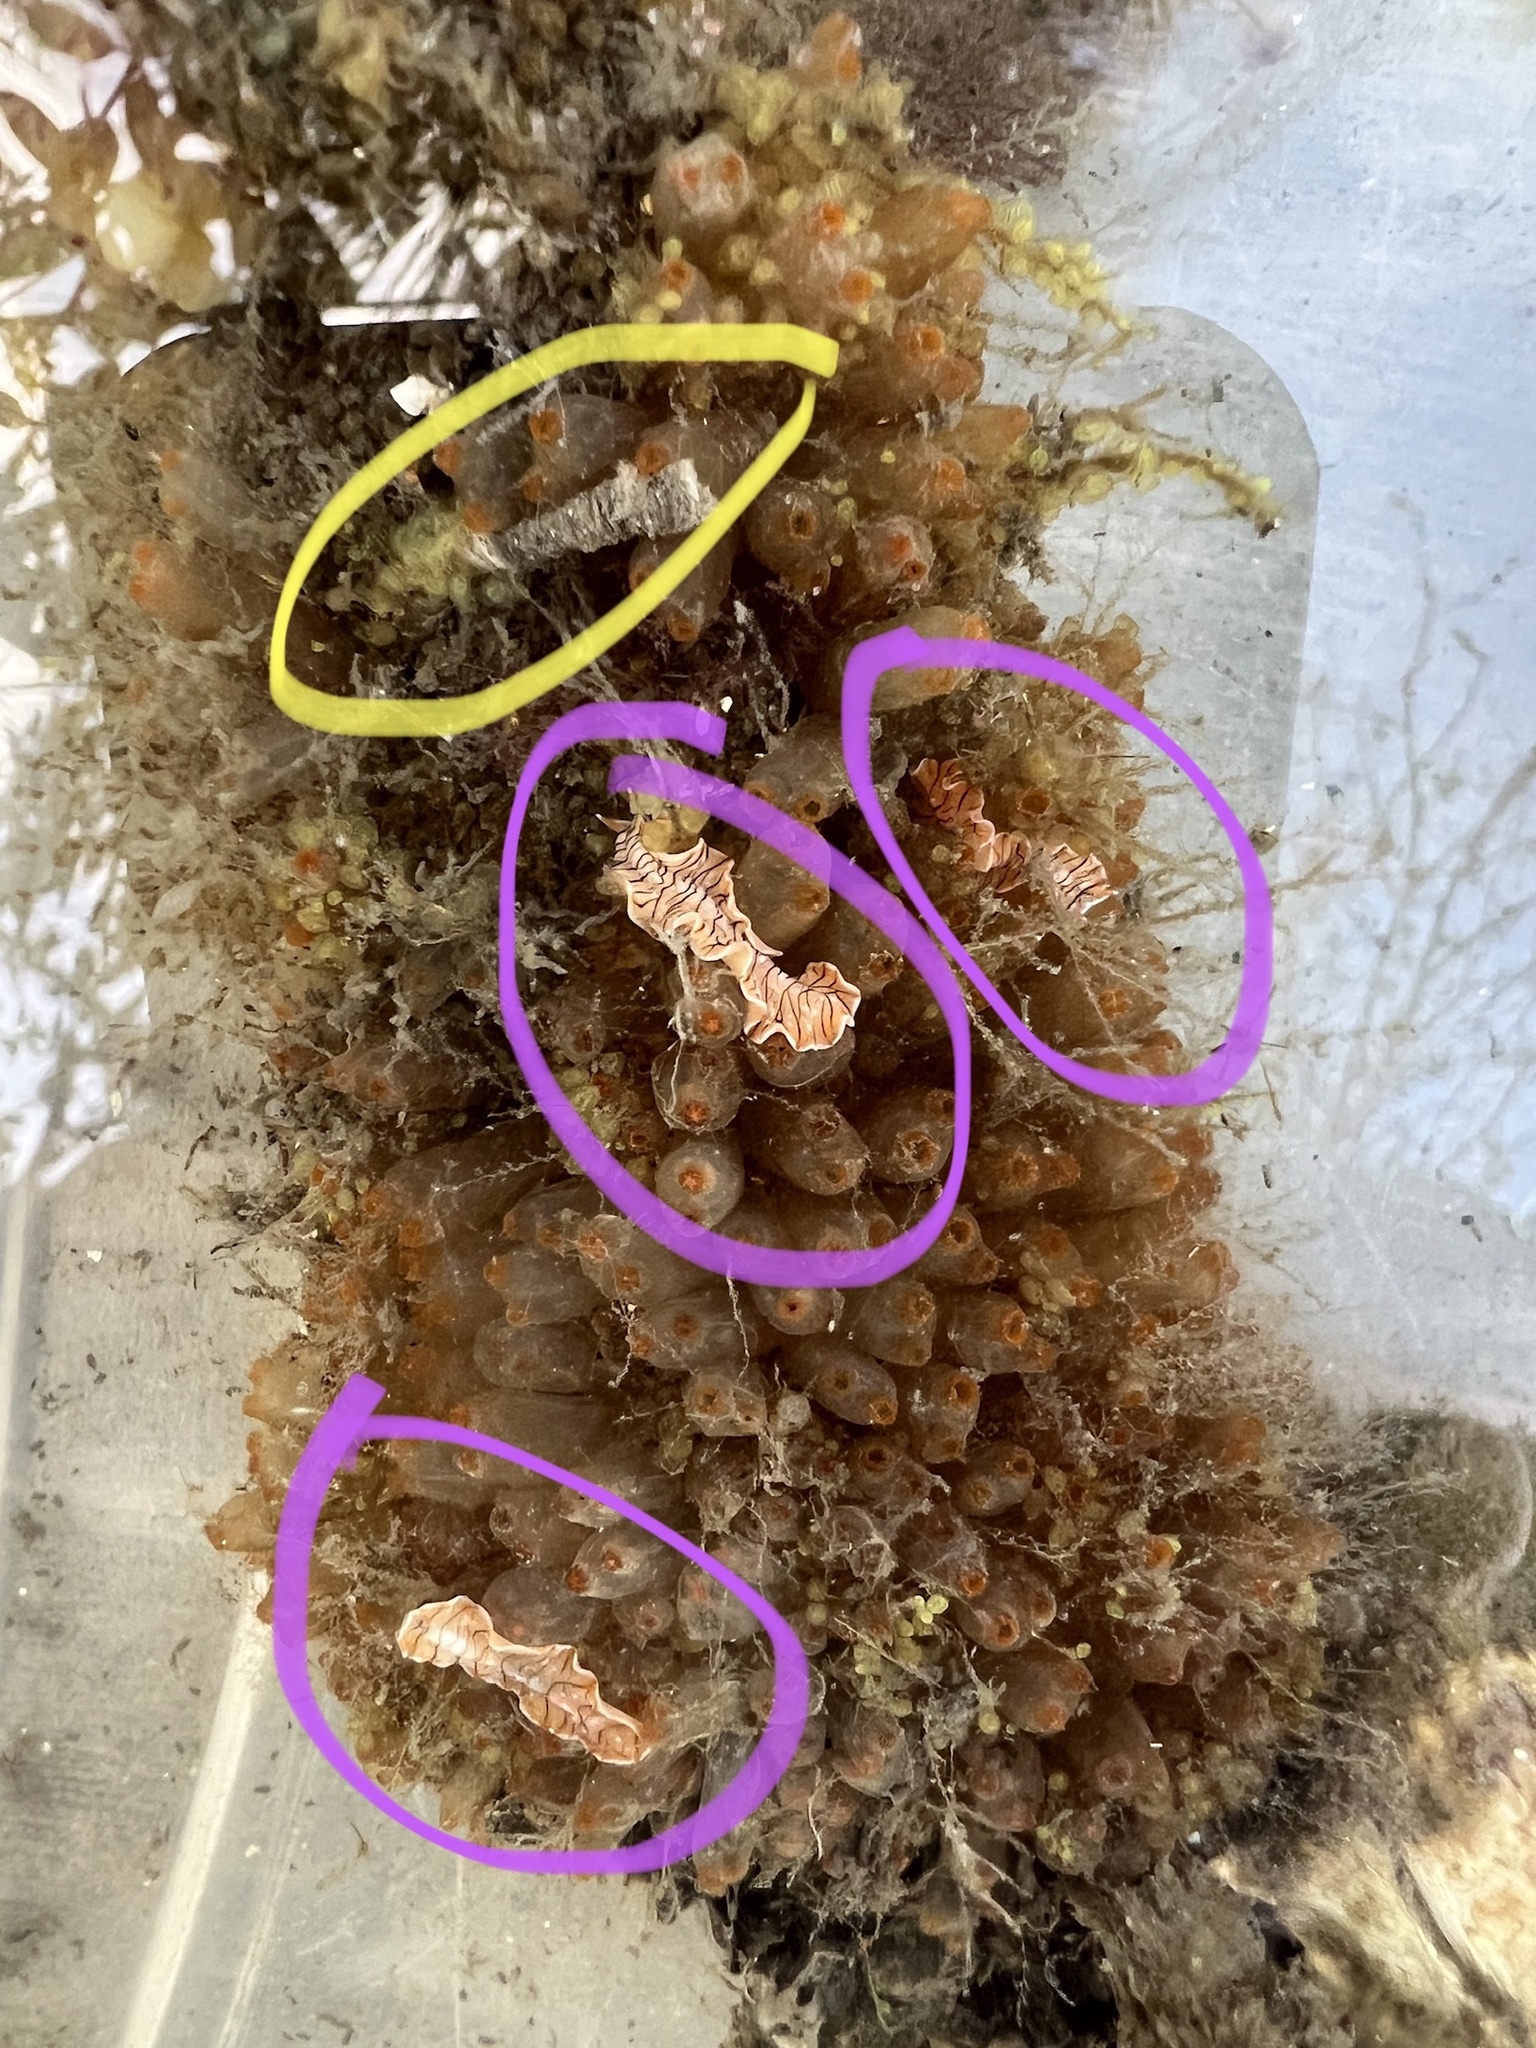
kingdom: Animalia
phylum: Platyhelminthes
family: Euryleptidae
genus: Prostheceraeus
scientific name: Prostheceraeus crozieri
